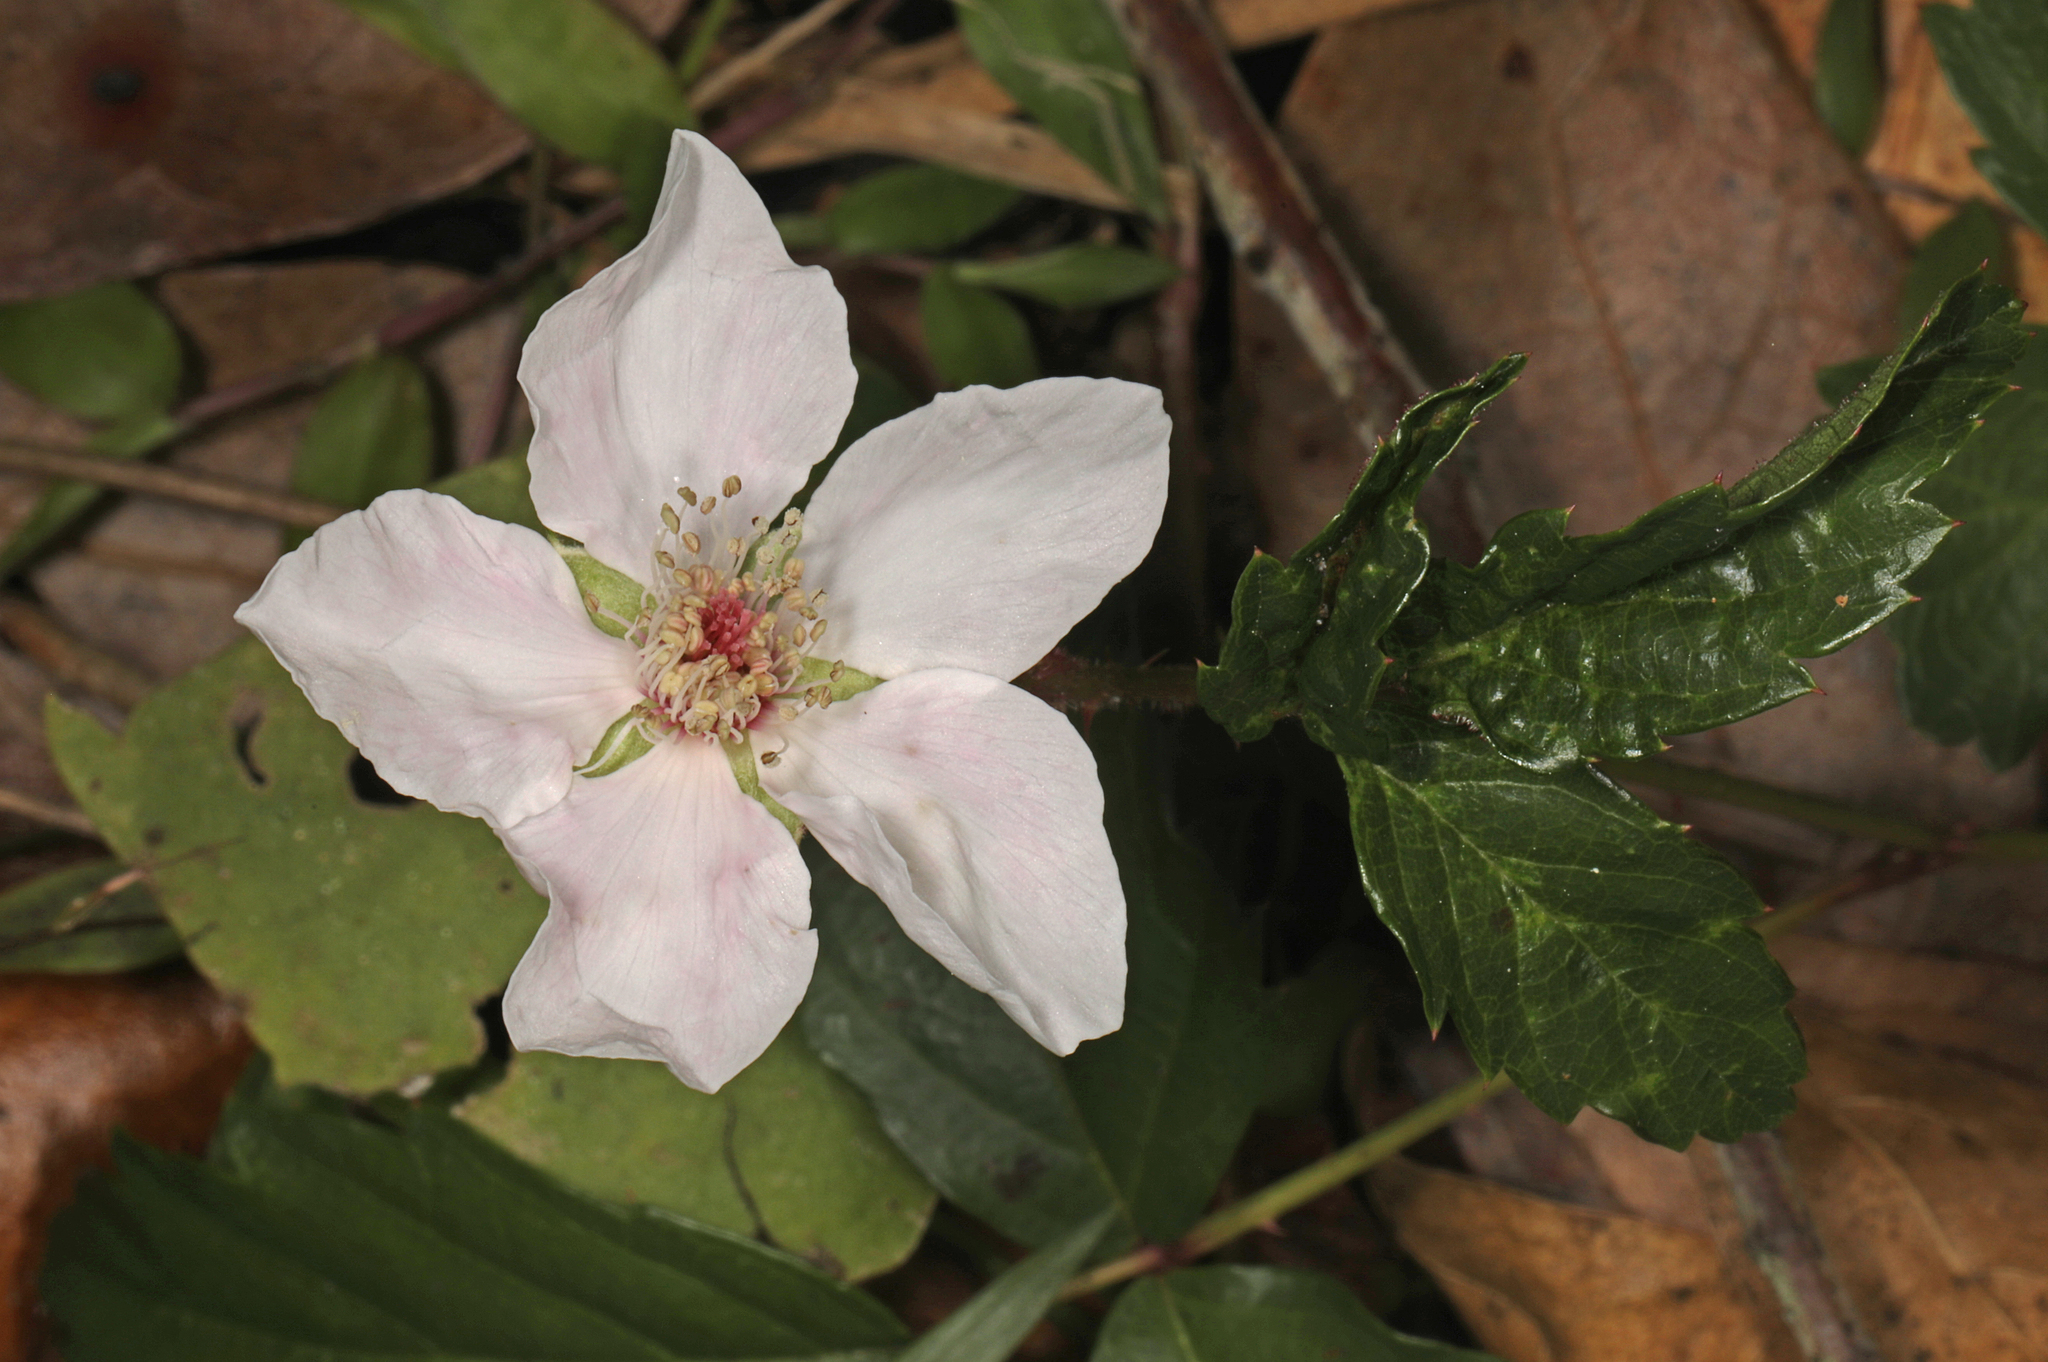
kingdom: Plantae
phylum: Tracheophyta
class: Magnoliopsida
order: Rosales
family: Rosaceae
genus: Rubus
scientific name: Rubus trivialis
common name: Southern dewberry
